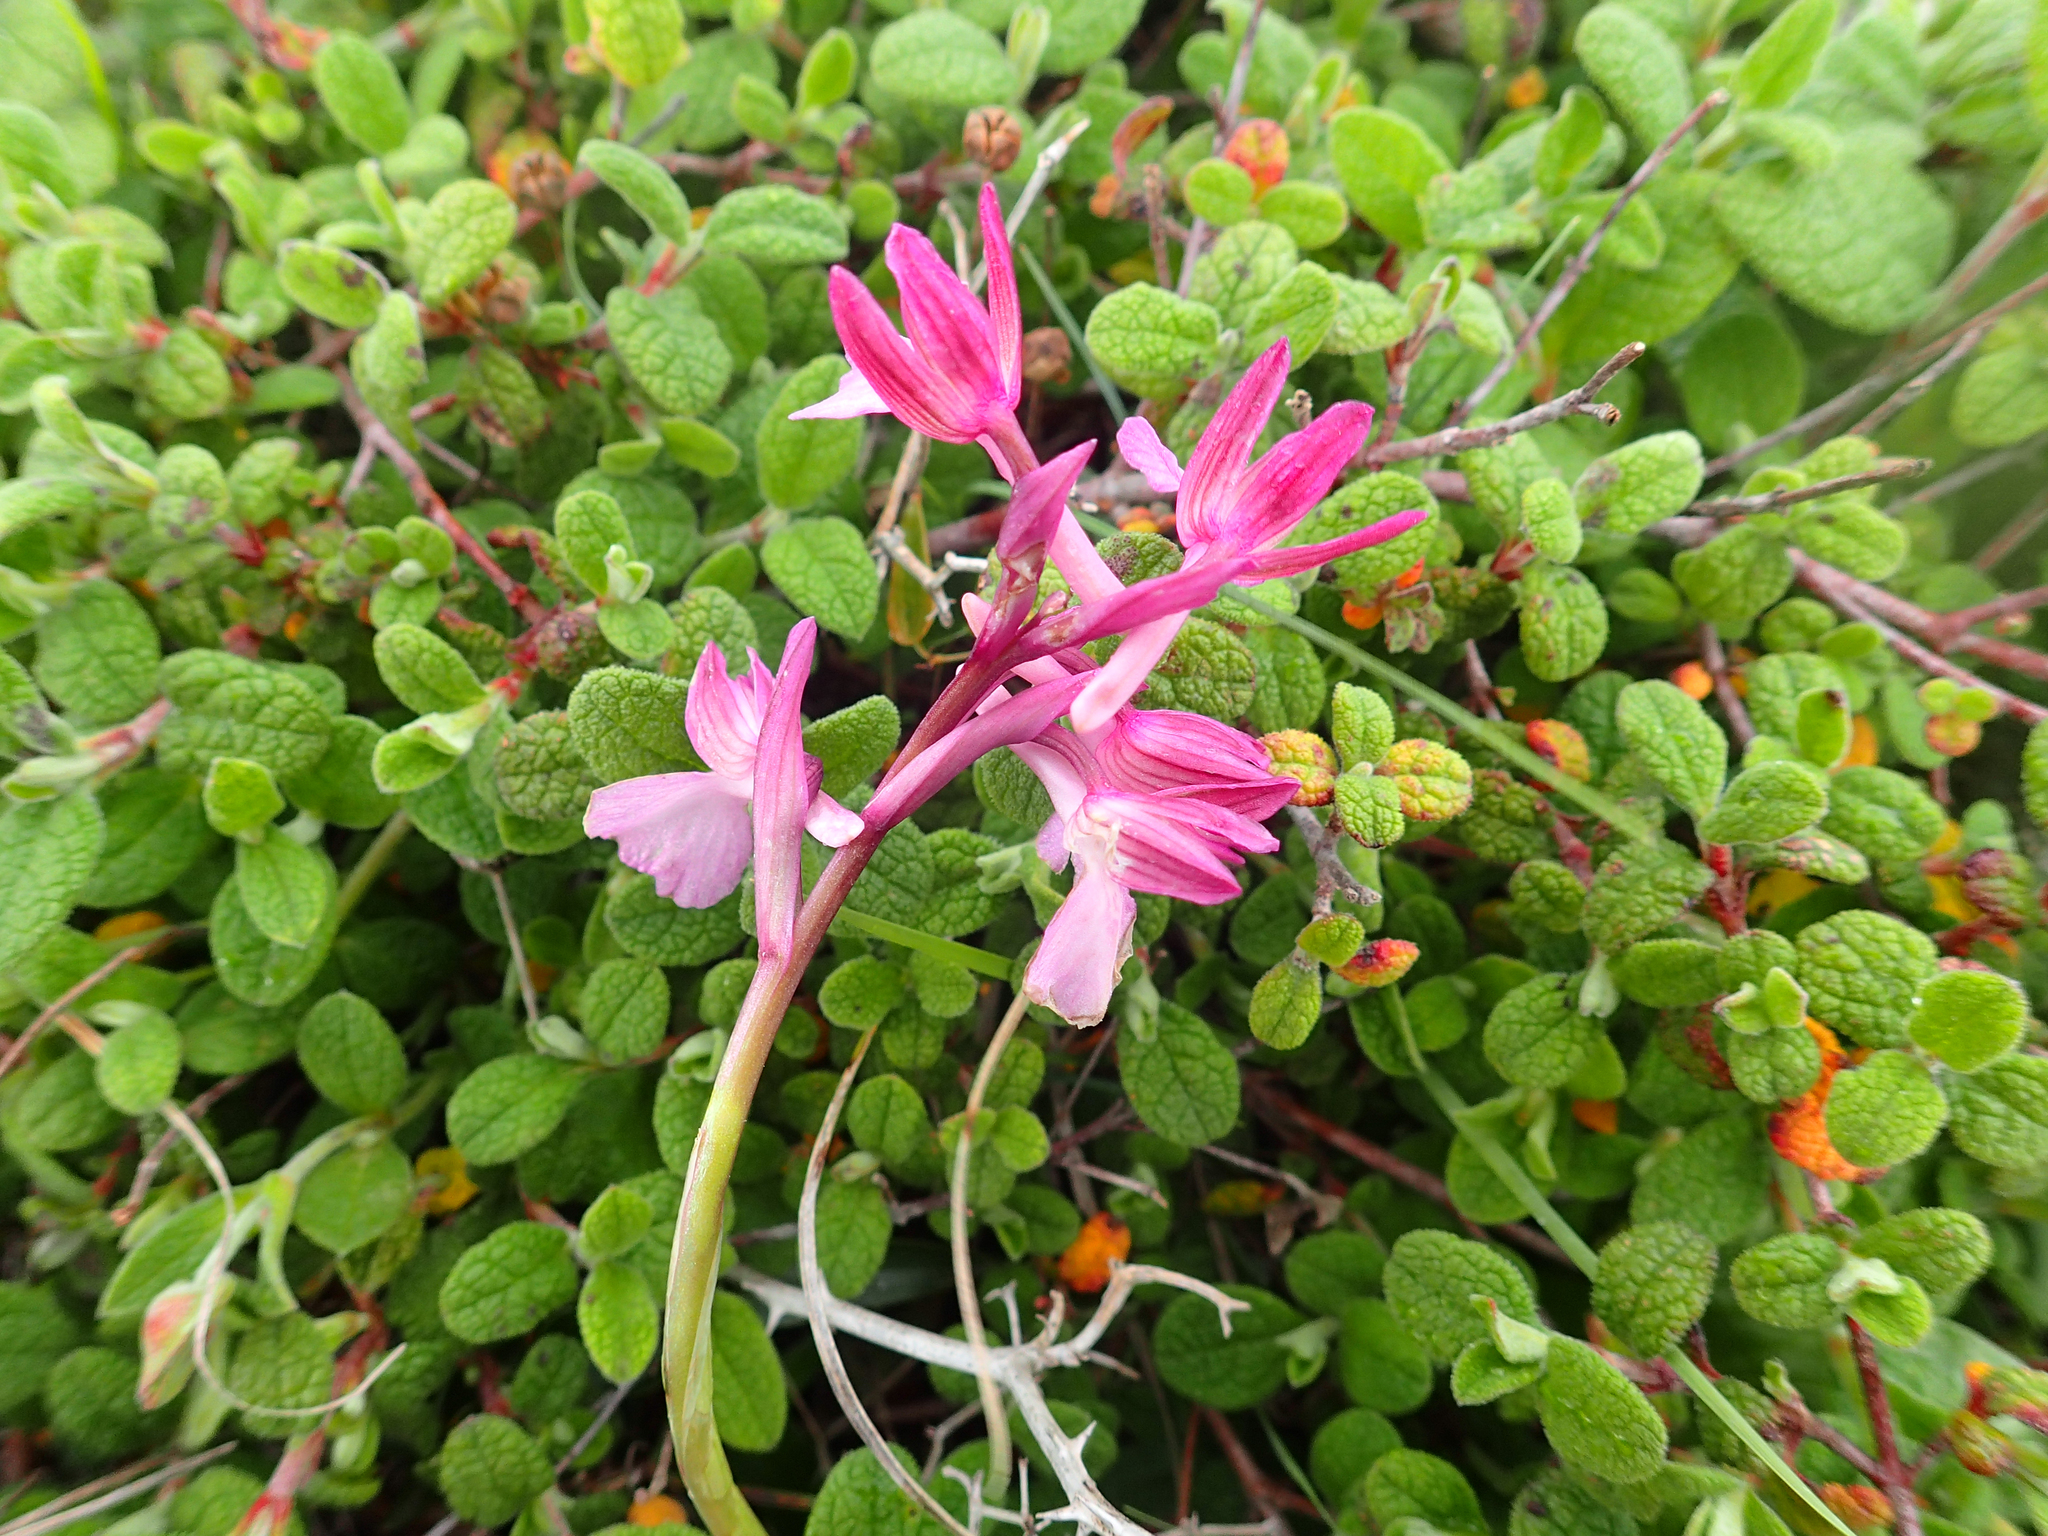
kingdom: Plantae
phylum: Tracheophyta
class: Liliopsida
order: Asparagales
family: Orchidaceae
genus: Anacamptis
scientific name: Anacamptis papilionacea
